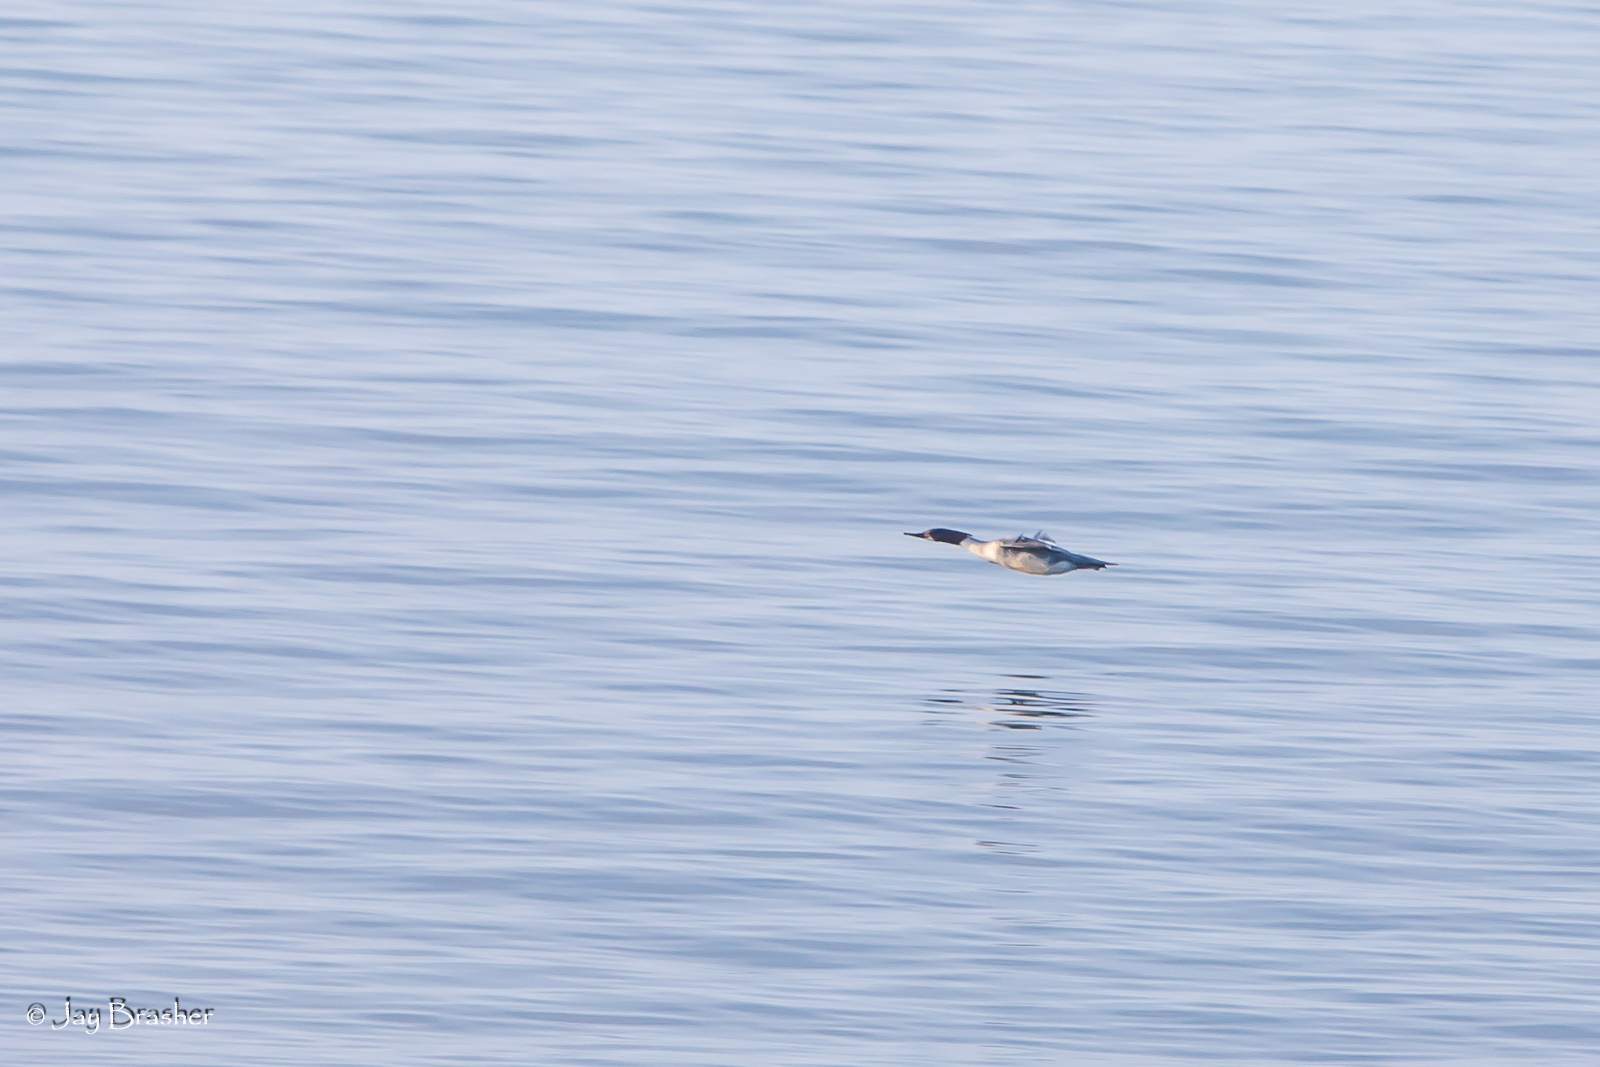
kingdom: Animalia
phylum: Chordata
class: Aves
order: Anseriformes
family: Anatidae
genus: Mergus
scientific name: Mergus merganser
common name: Common merganser
